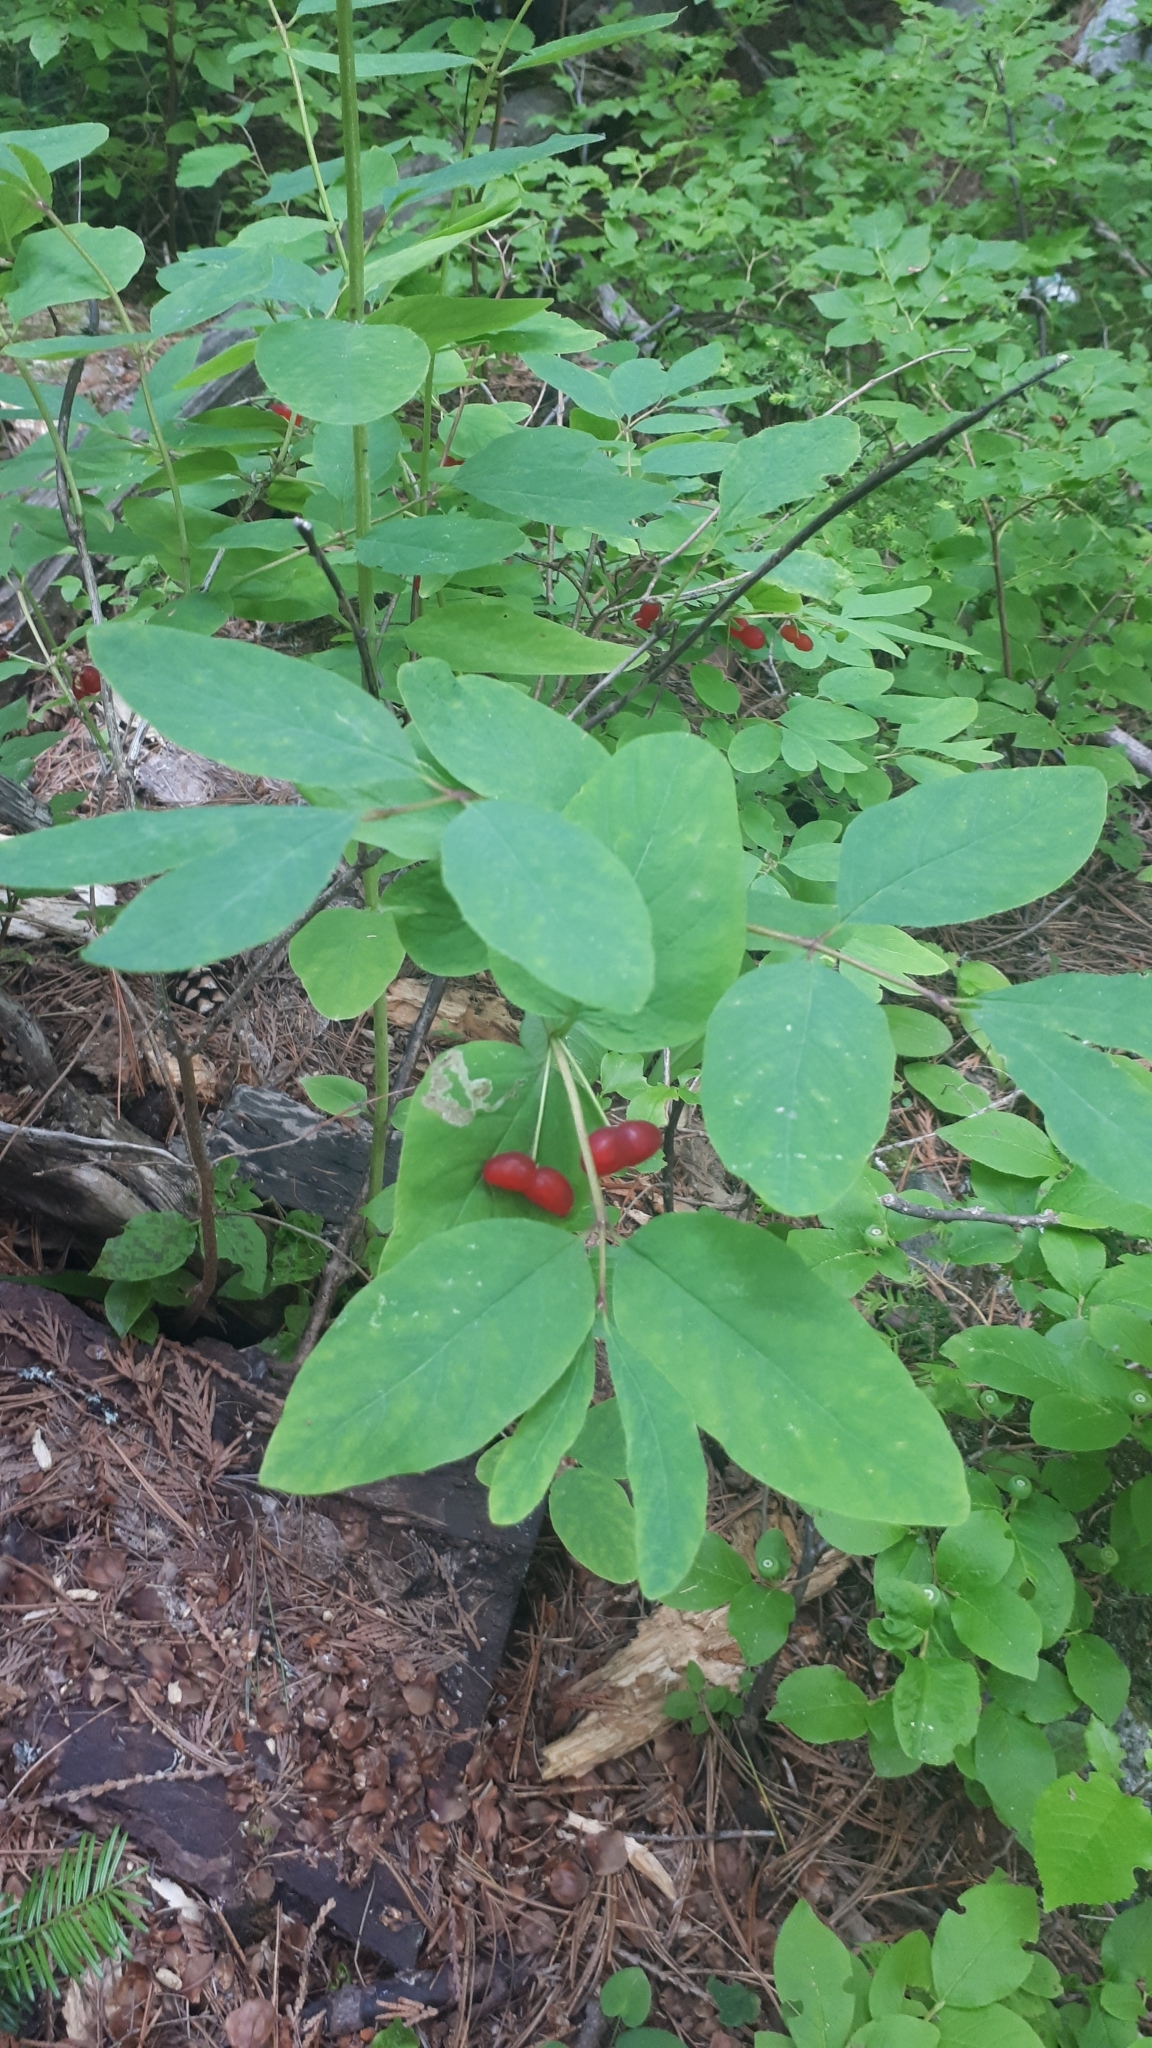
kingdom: Plantae
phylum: Tracheophyta
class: Magnoliopsida
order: Dipsacales
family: Caprifoliaceae
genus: Lonicera
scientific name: Lonicera utahensis
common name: Utah honeysuckle
